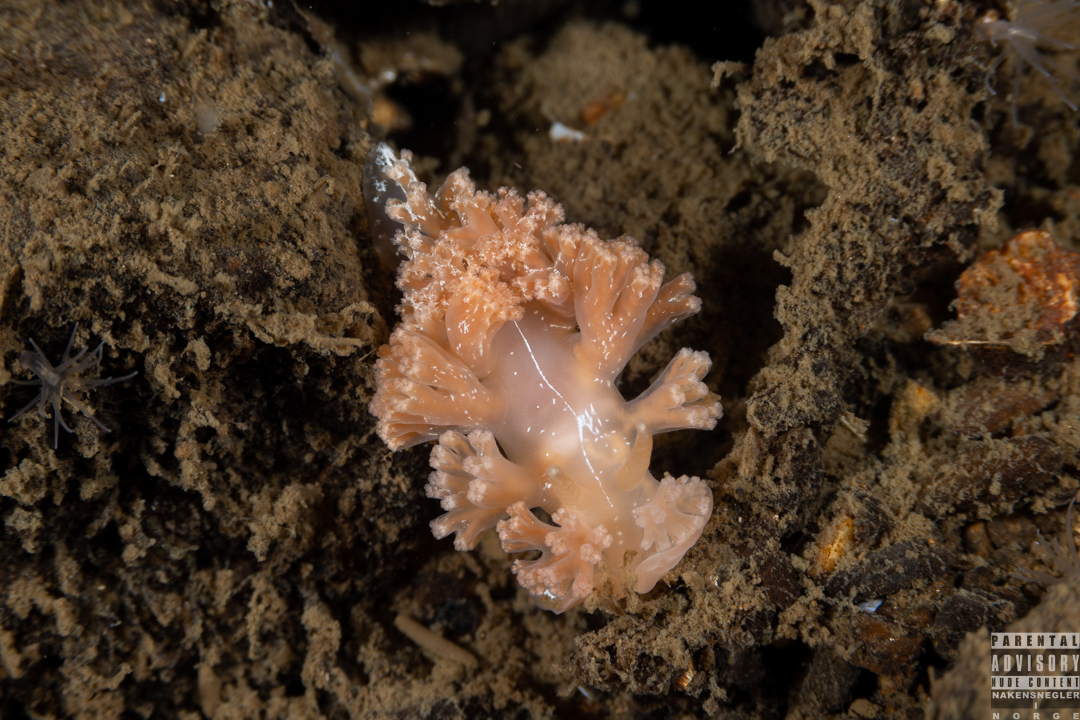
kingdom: Animalia
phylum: Mollusca
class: Gastropoda
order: Nudibranchia
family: Heroidae
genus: Hero
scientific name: Hero formosa
